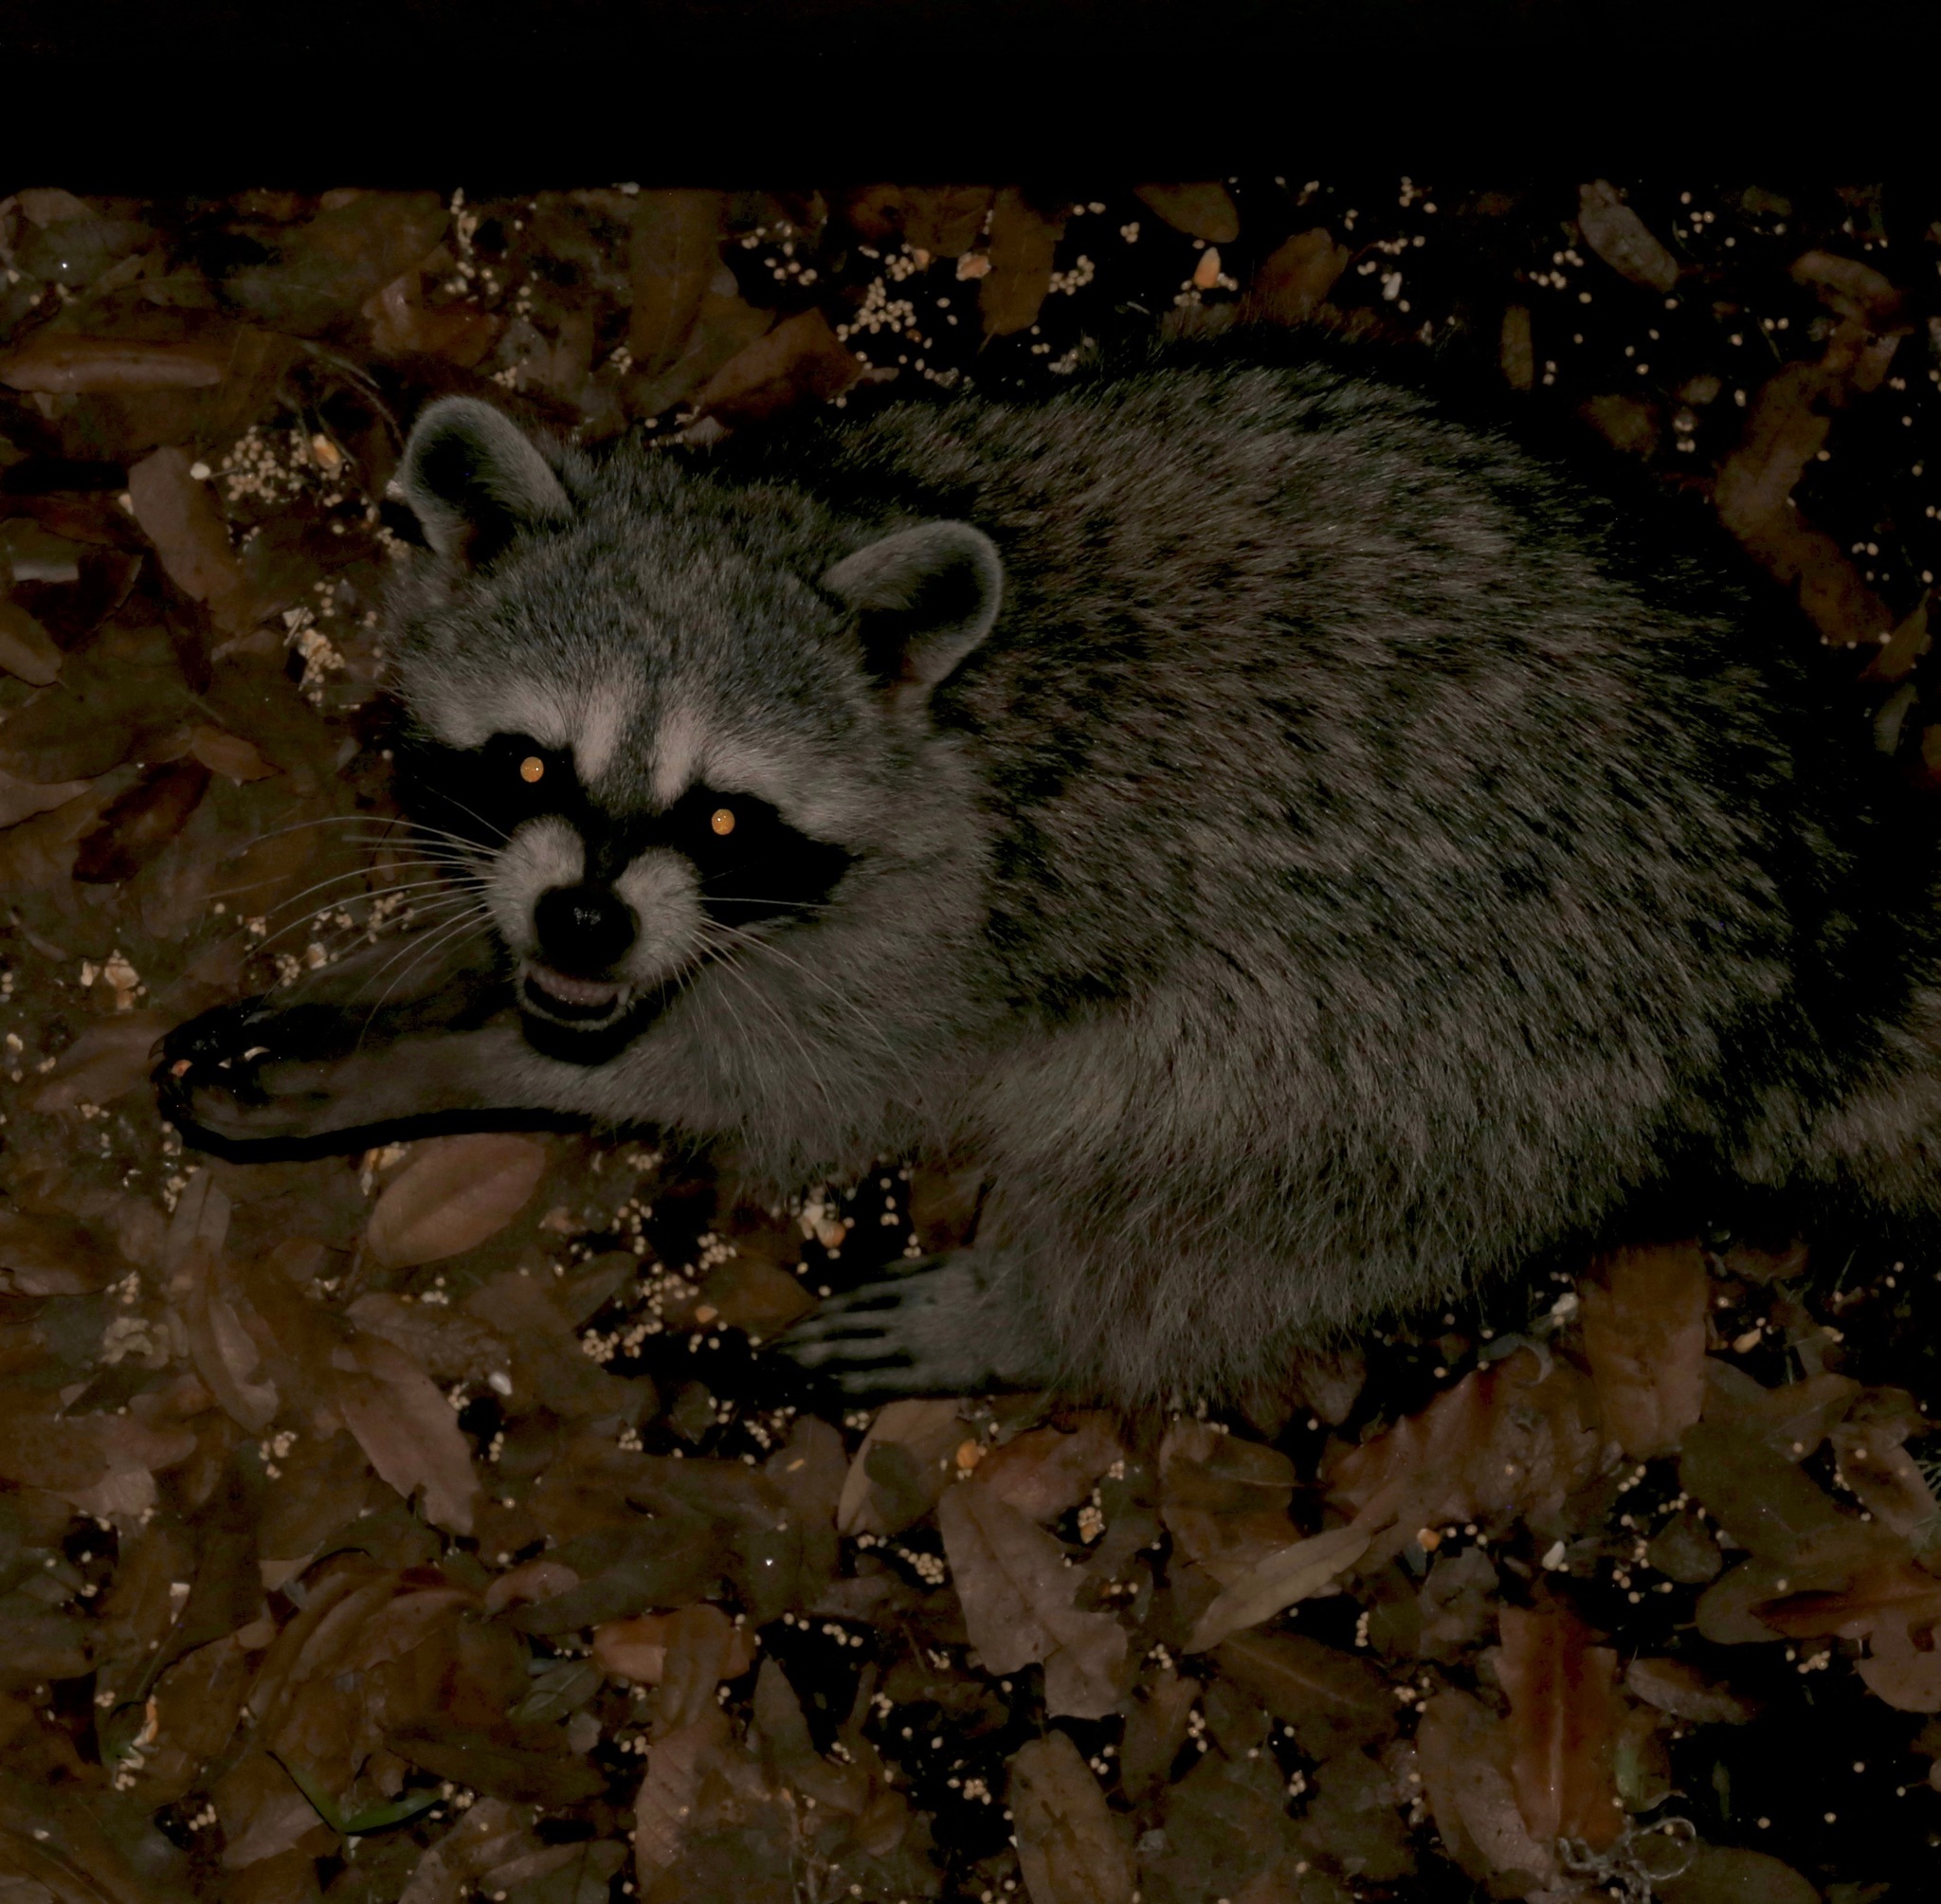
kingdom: Animalia
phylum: Chordata
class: Mammalia
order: Carnivora
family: Procyonidae
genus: Procyon
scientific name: Procyon lotor
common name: Raccoon
